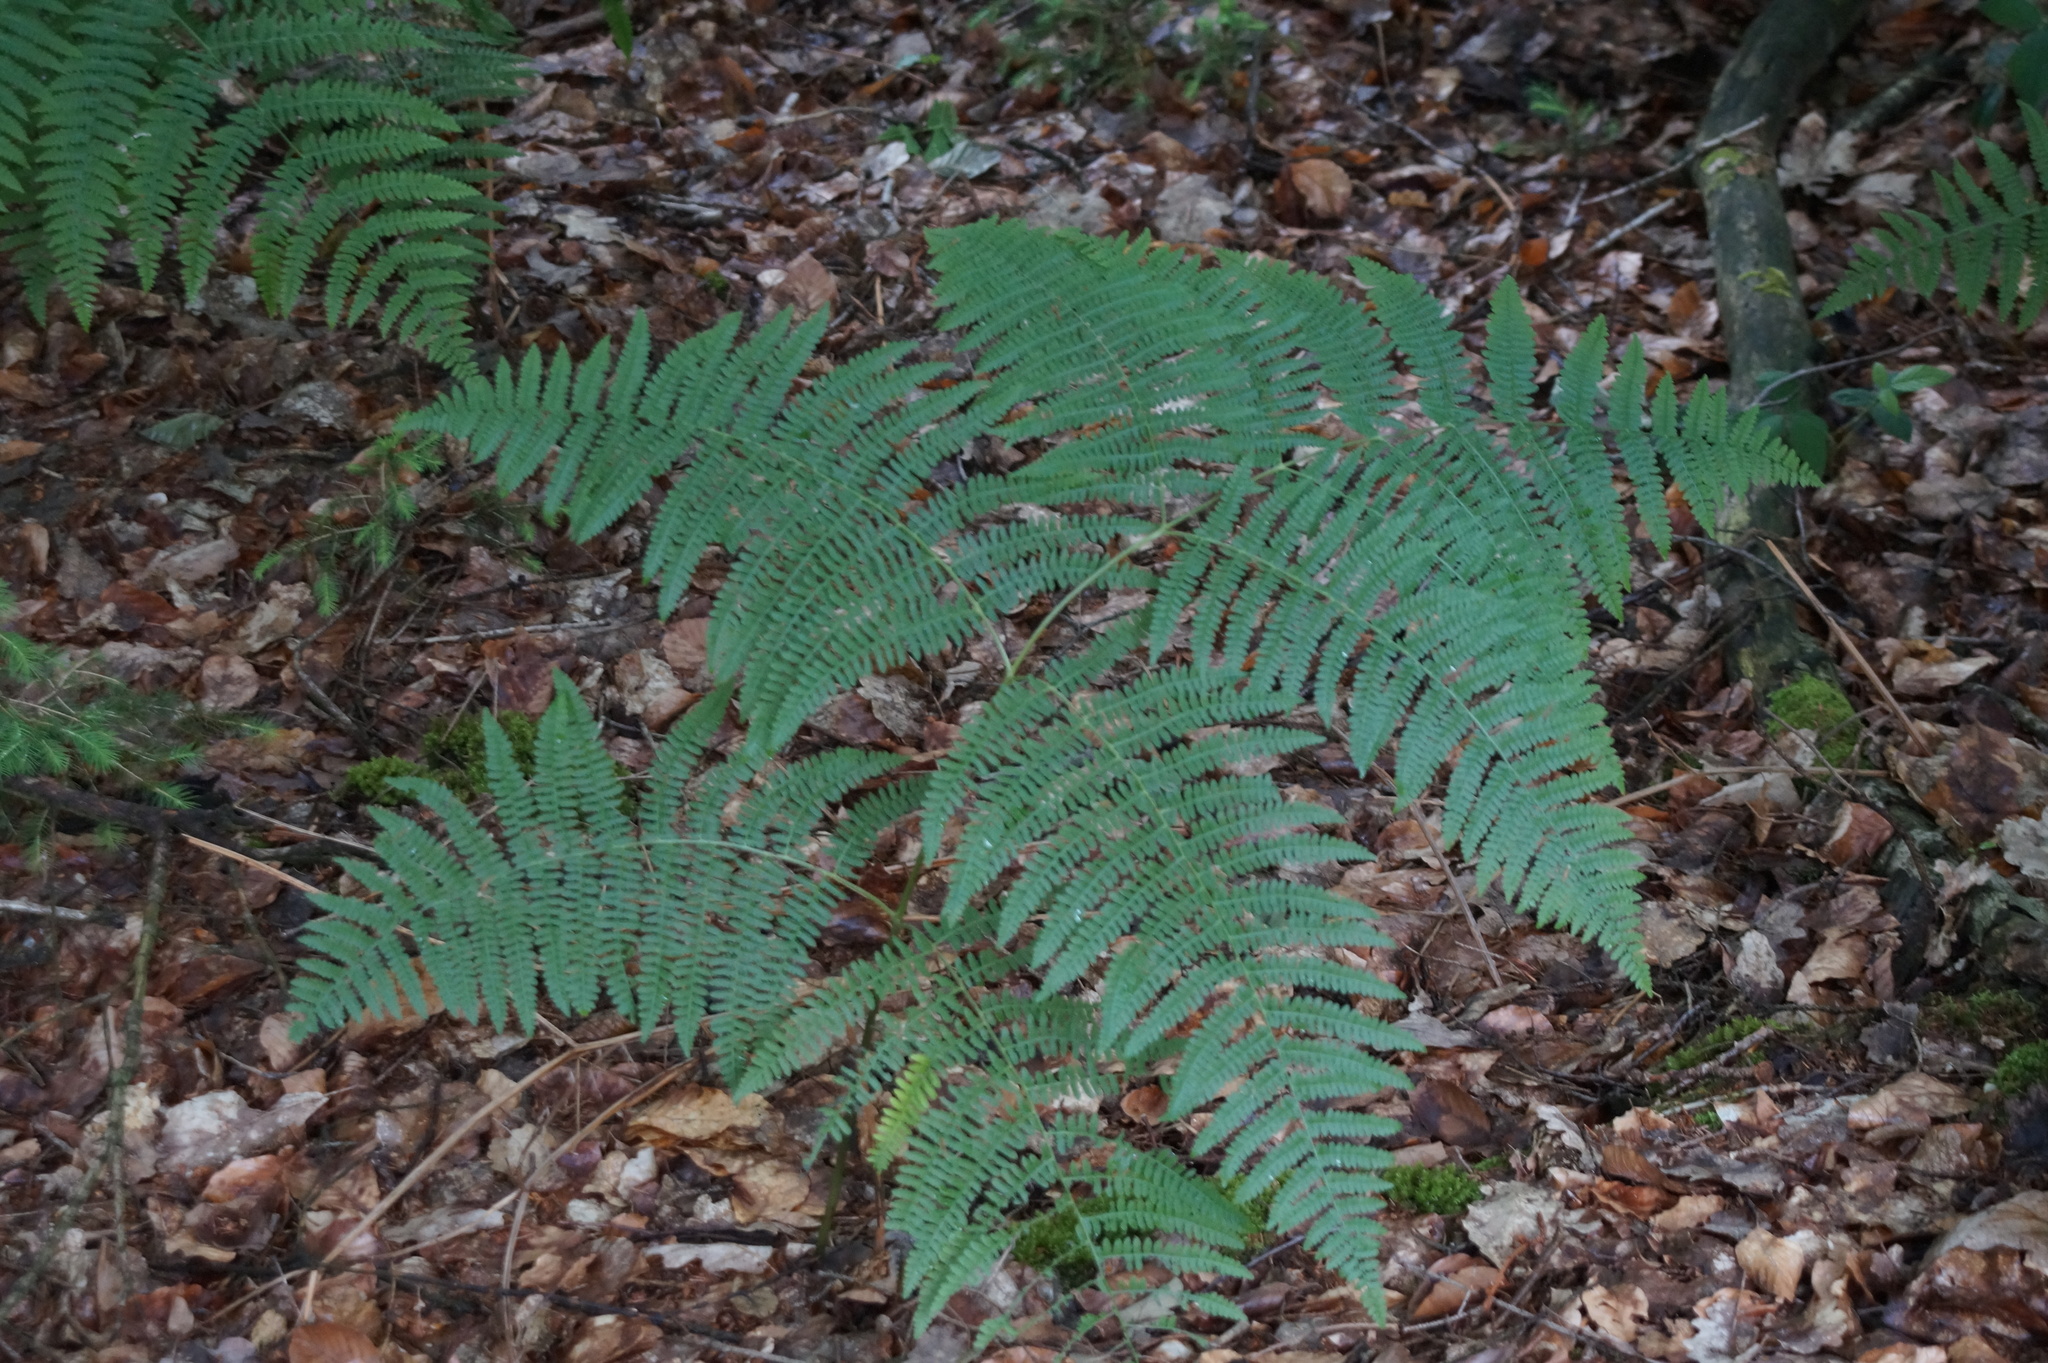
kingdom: Plantae
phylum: Tracheophyta
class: Polypodiopsida
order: Polypodiales
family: Dennstaedtiaceae
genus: Pteridium
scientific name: Pteridium aquilinum
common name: Bracken
